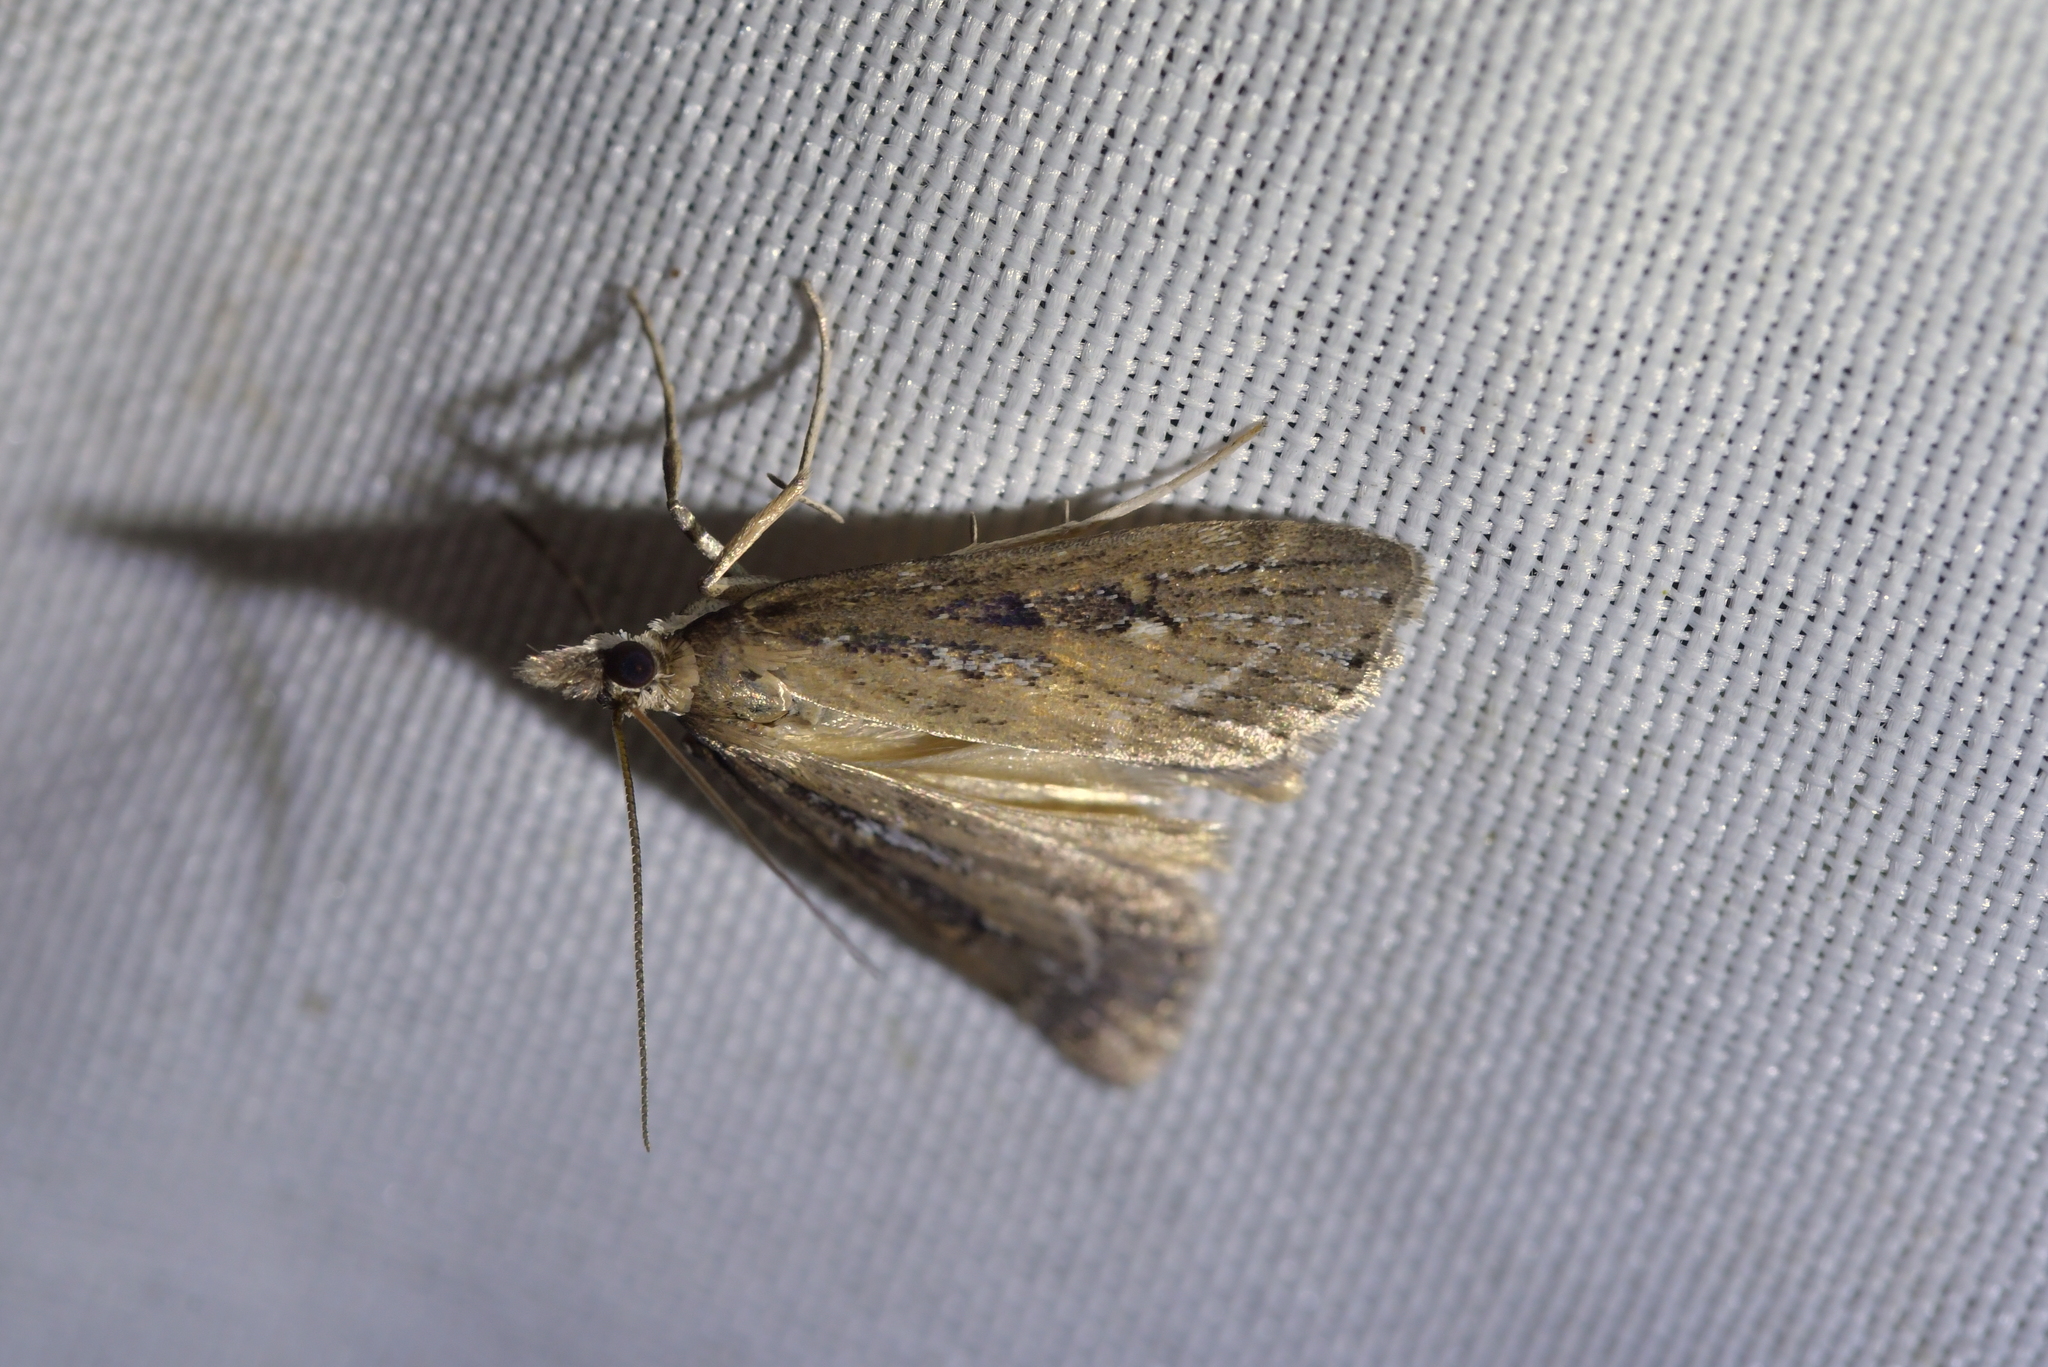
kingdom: Animalia
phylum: Arthropoda
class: Insecta
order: Lepidoptera
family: Crambidae
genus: Eudonia
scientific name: Eudonia octophora
